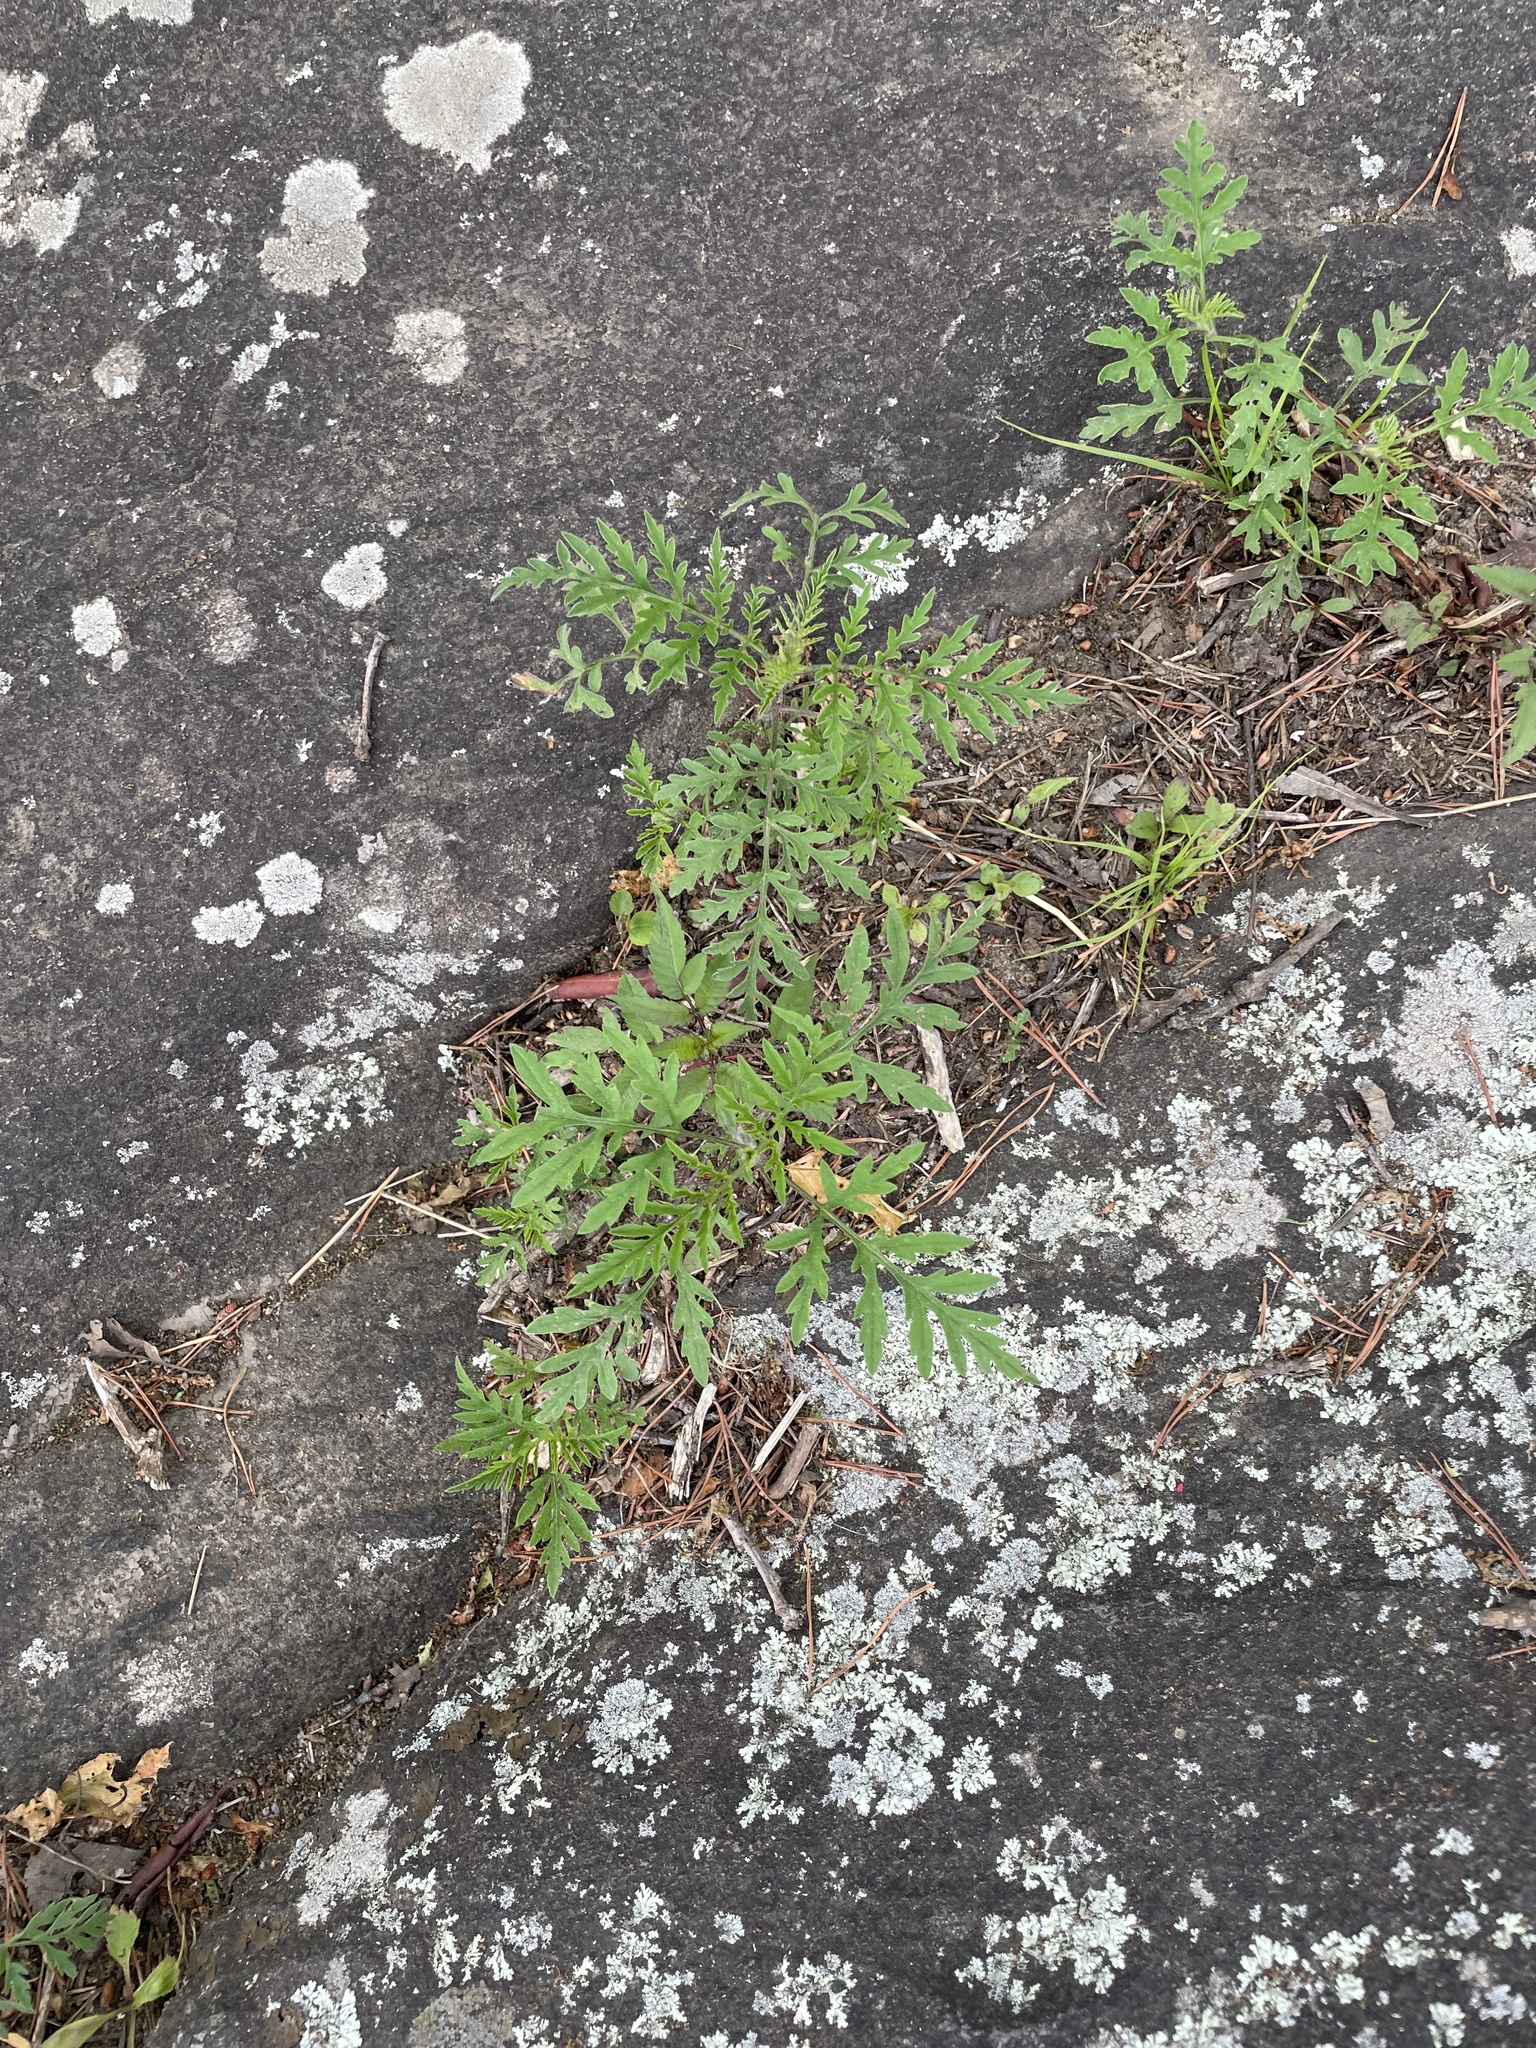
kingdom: Plantae
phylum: Tracheophyta
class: Magnoliopsida
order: Asterales
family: Asteraceae
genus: Ambrosia
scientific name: Ambrosia artemisiifolia
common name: Annual ragweed
